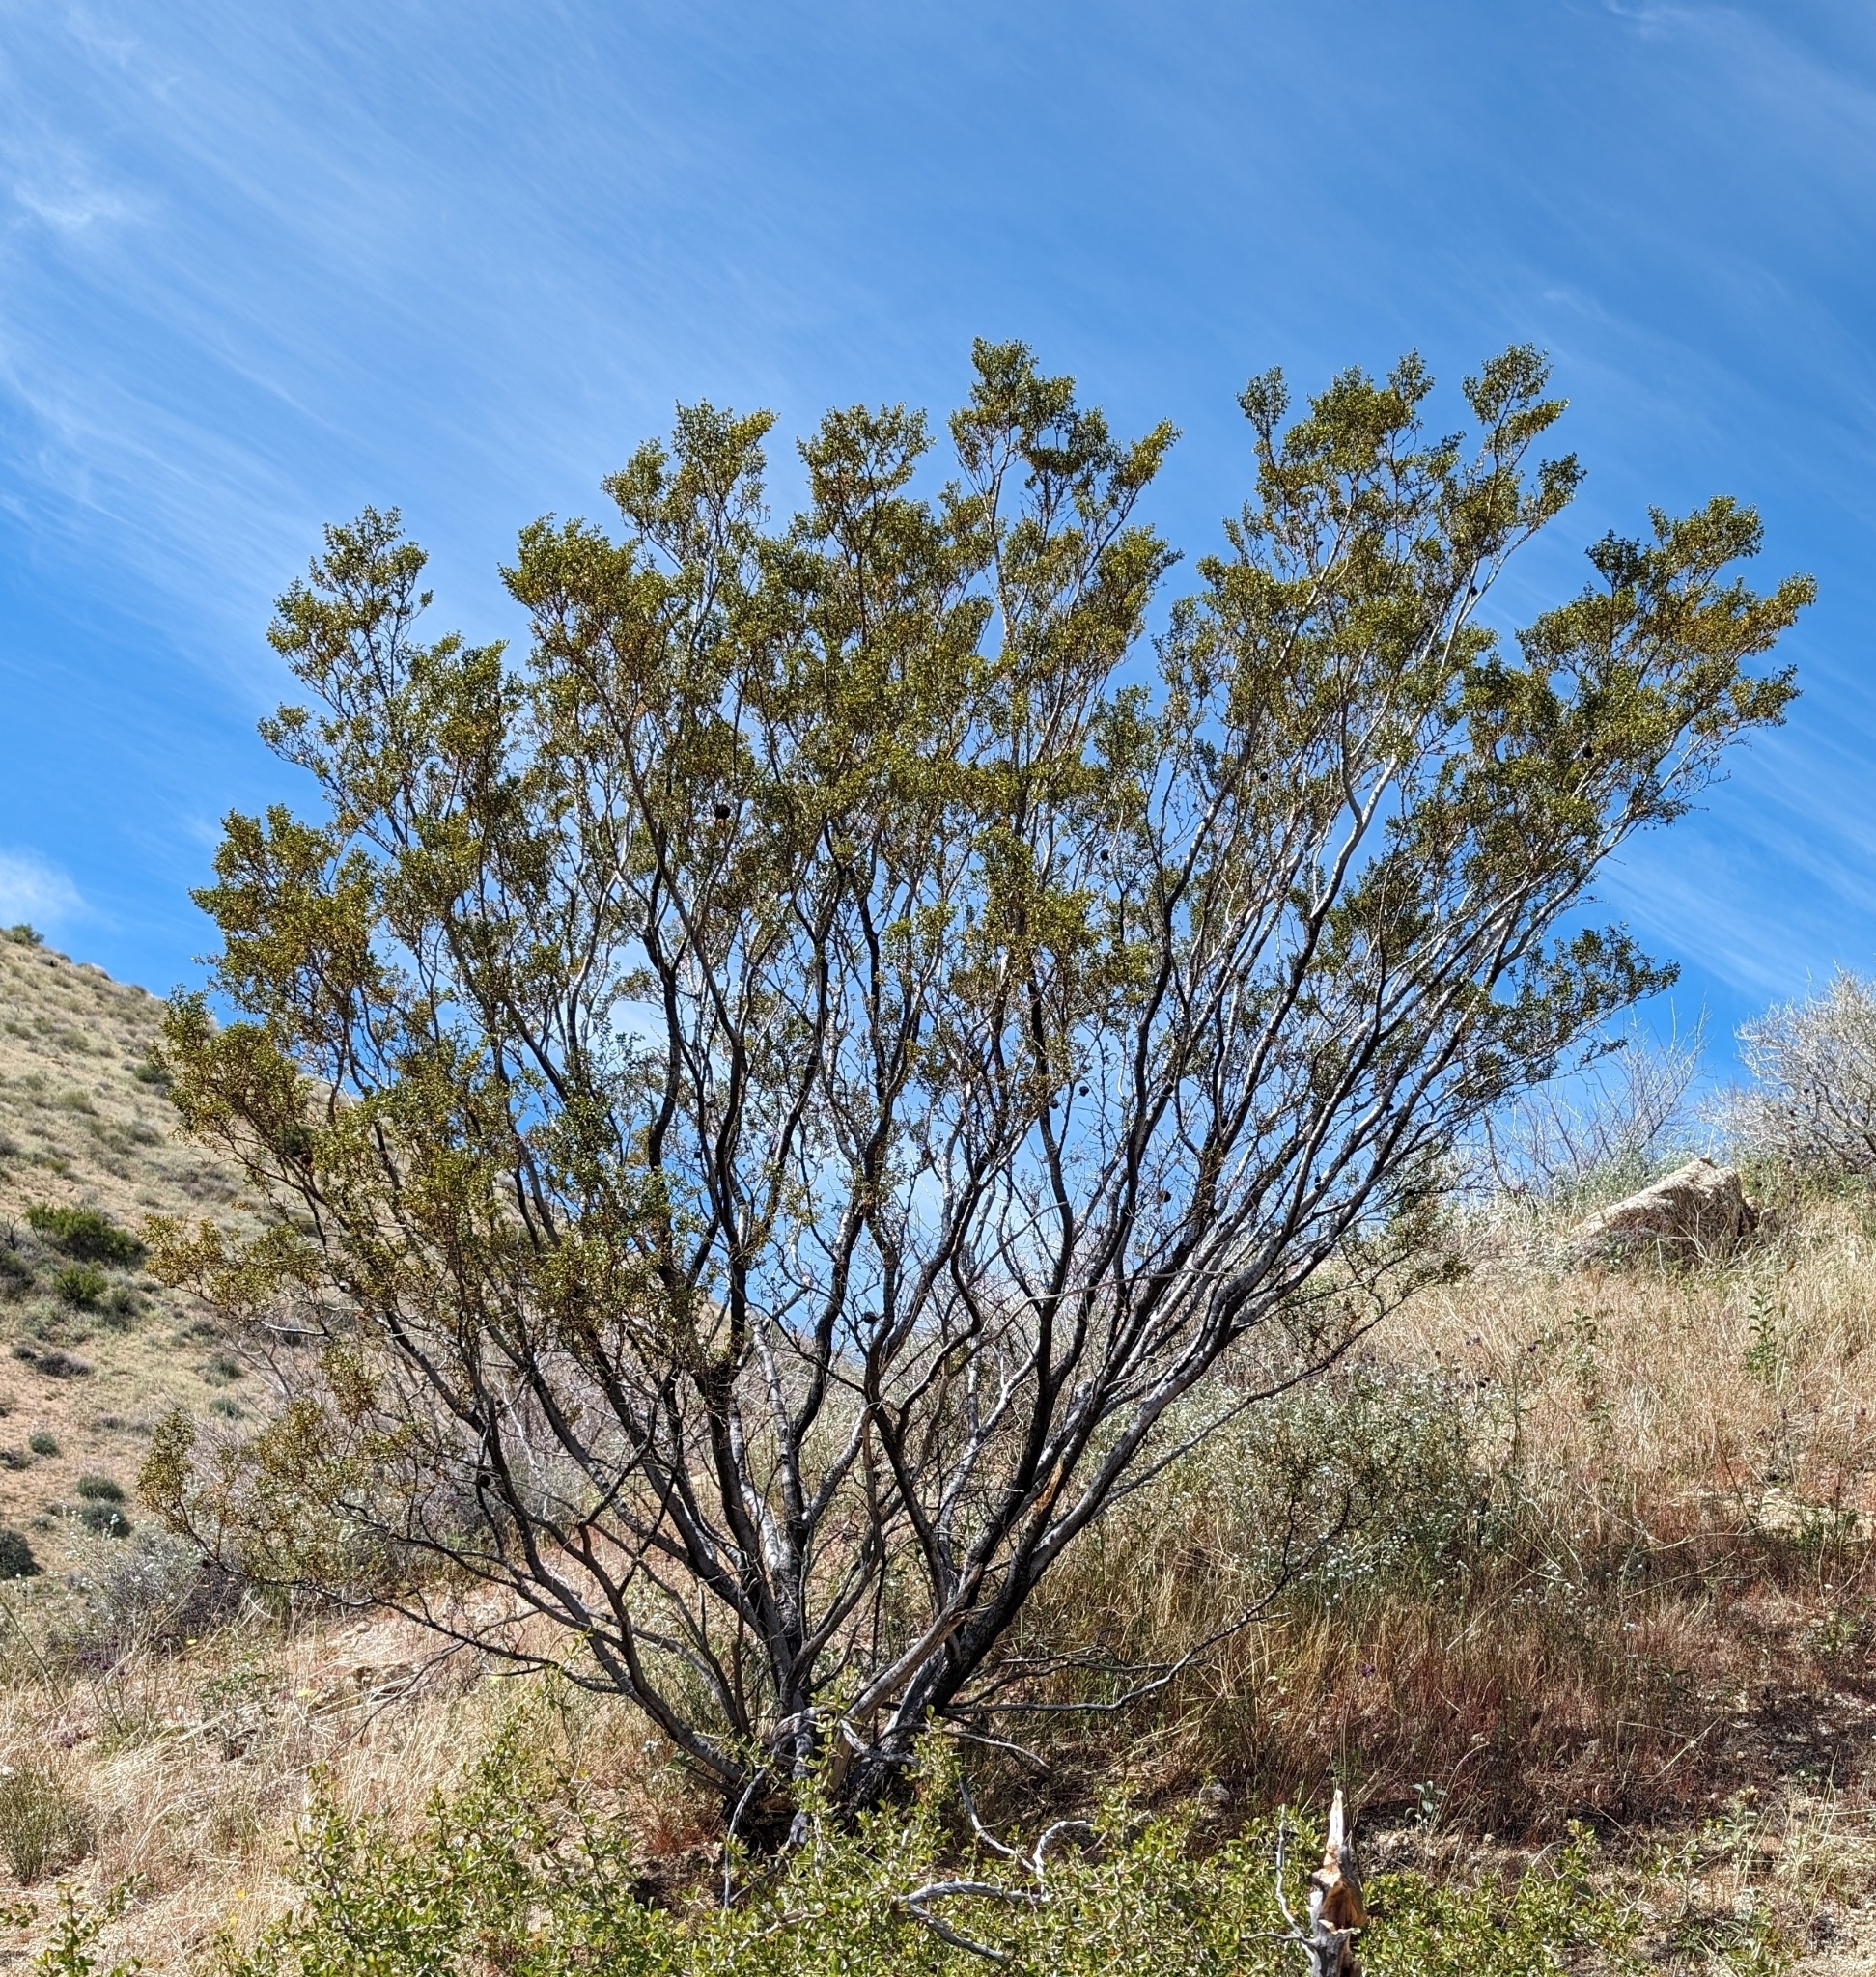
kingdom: Plantae
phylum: Tracheophyta
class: Magnoliopsida
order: Zygophyllales
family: Zygophyllaceae
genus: Larrea
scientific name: Larrea tridentata
